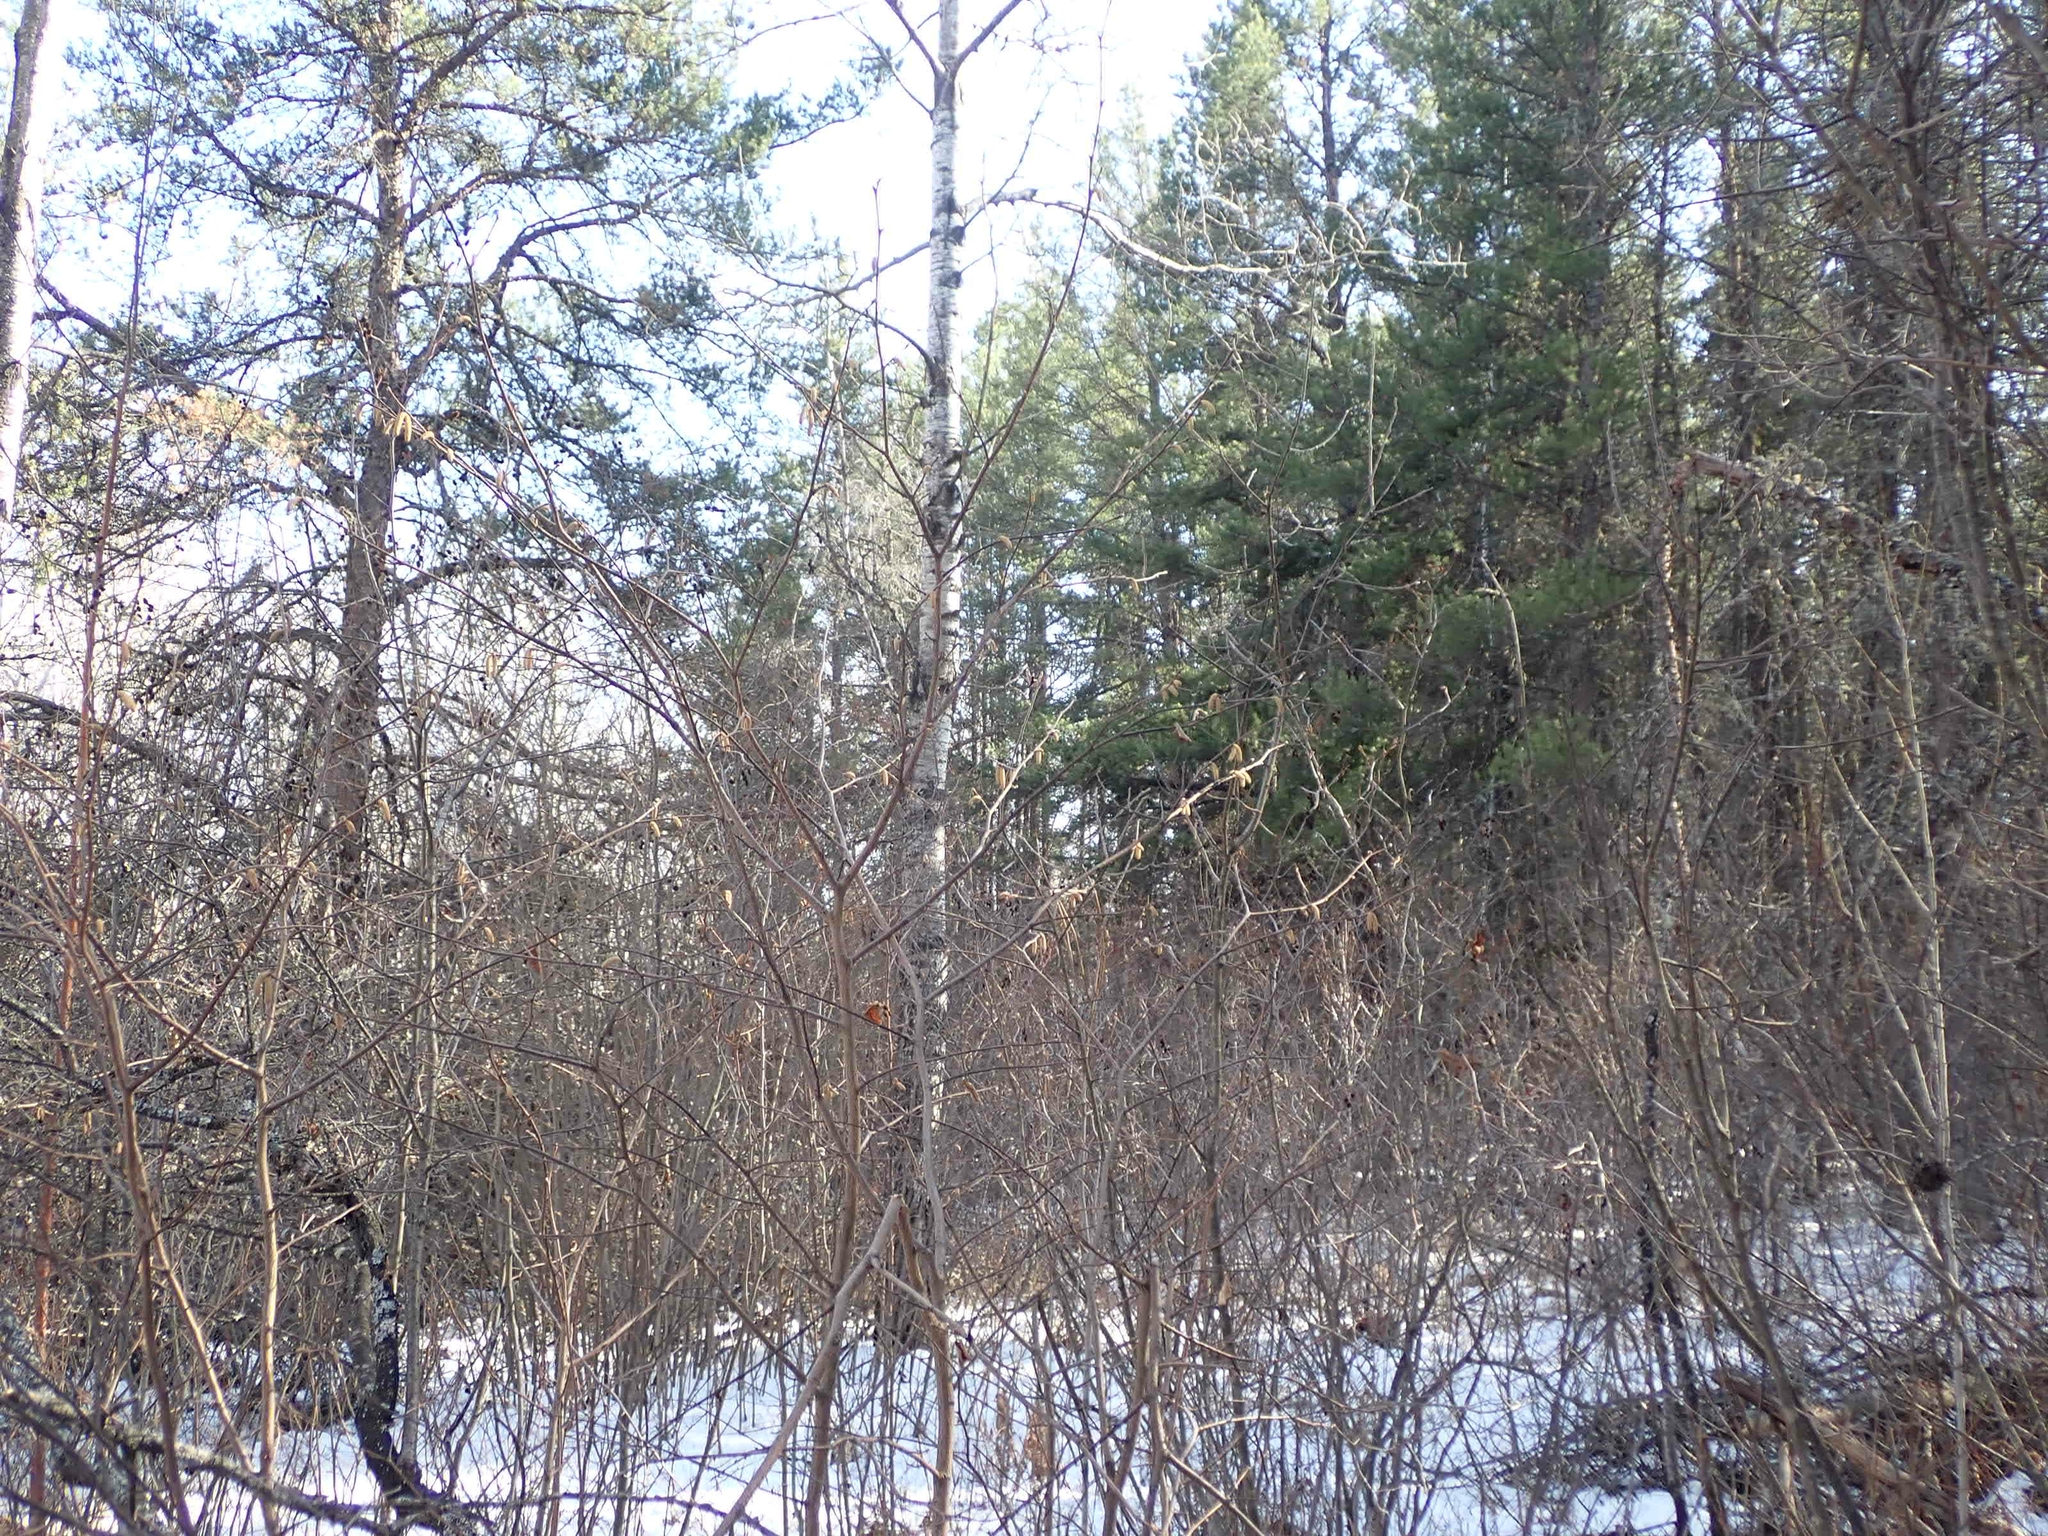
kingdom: Plantae
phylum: Tracheophyta
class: Magnoliopsida
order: Fagales
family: Betulaceae
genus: Corylus
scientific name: Corylus americana
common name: American hazel
